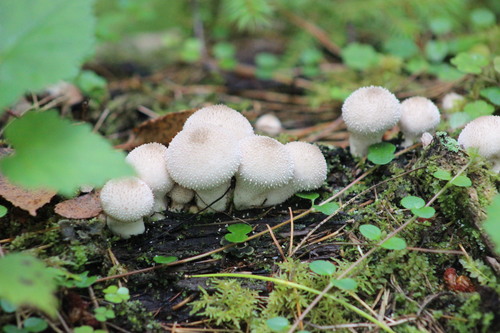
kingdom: Fungi
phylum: Basidiomycota
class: Agaricomycetes
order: Agaricales
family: Lycoperdaceae
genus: Lycoperdon
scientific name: Lycoperdon perlatum
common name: Common puffball
